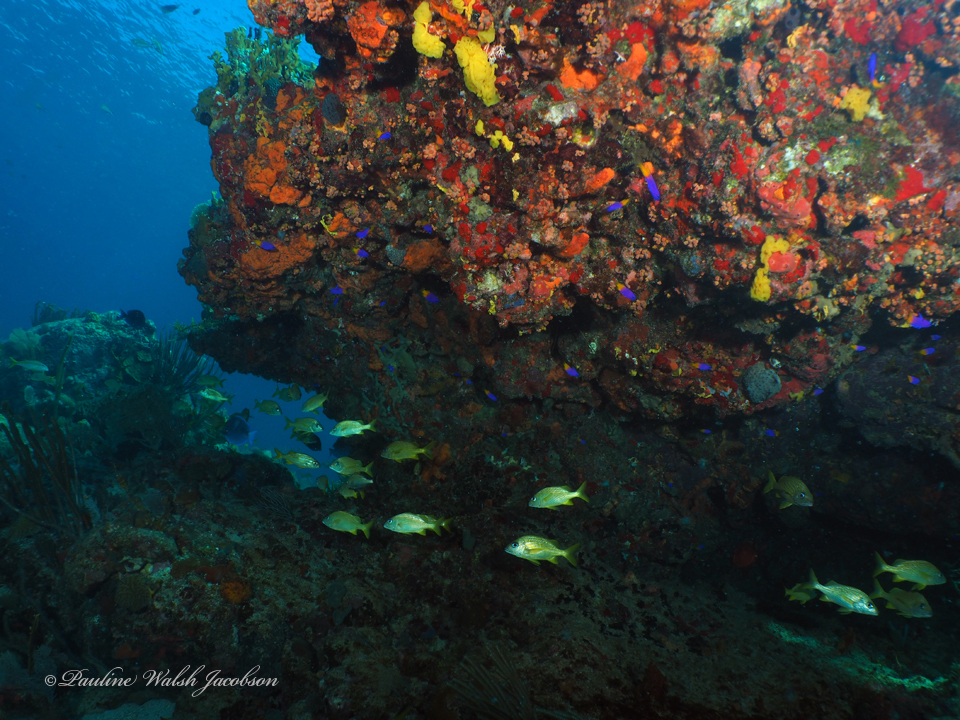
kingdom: Animalia
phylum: Chordata
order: Perciformes
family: Grammatidae
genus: Gramma
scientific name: Gramma loreto
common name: Fairy basslet
